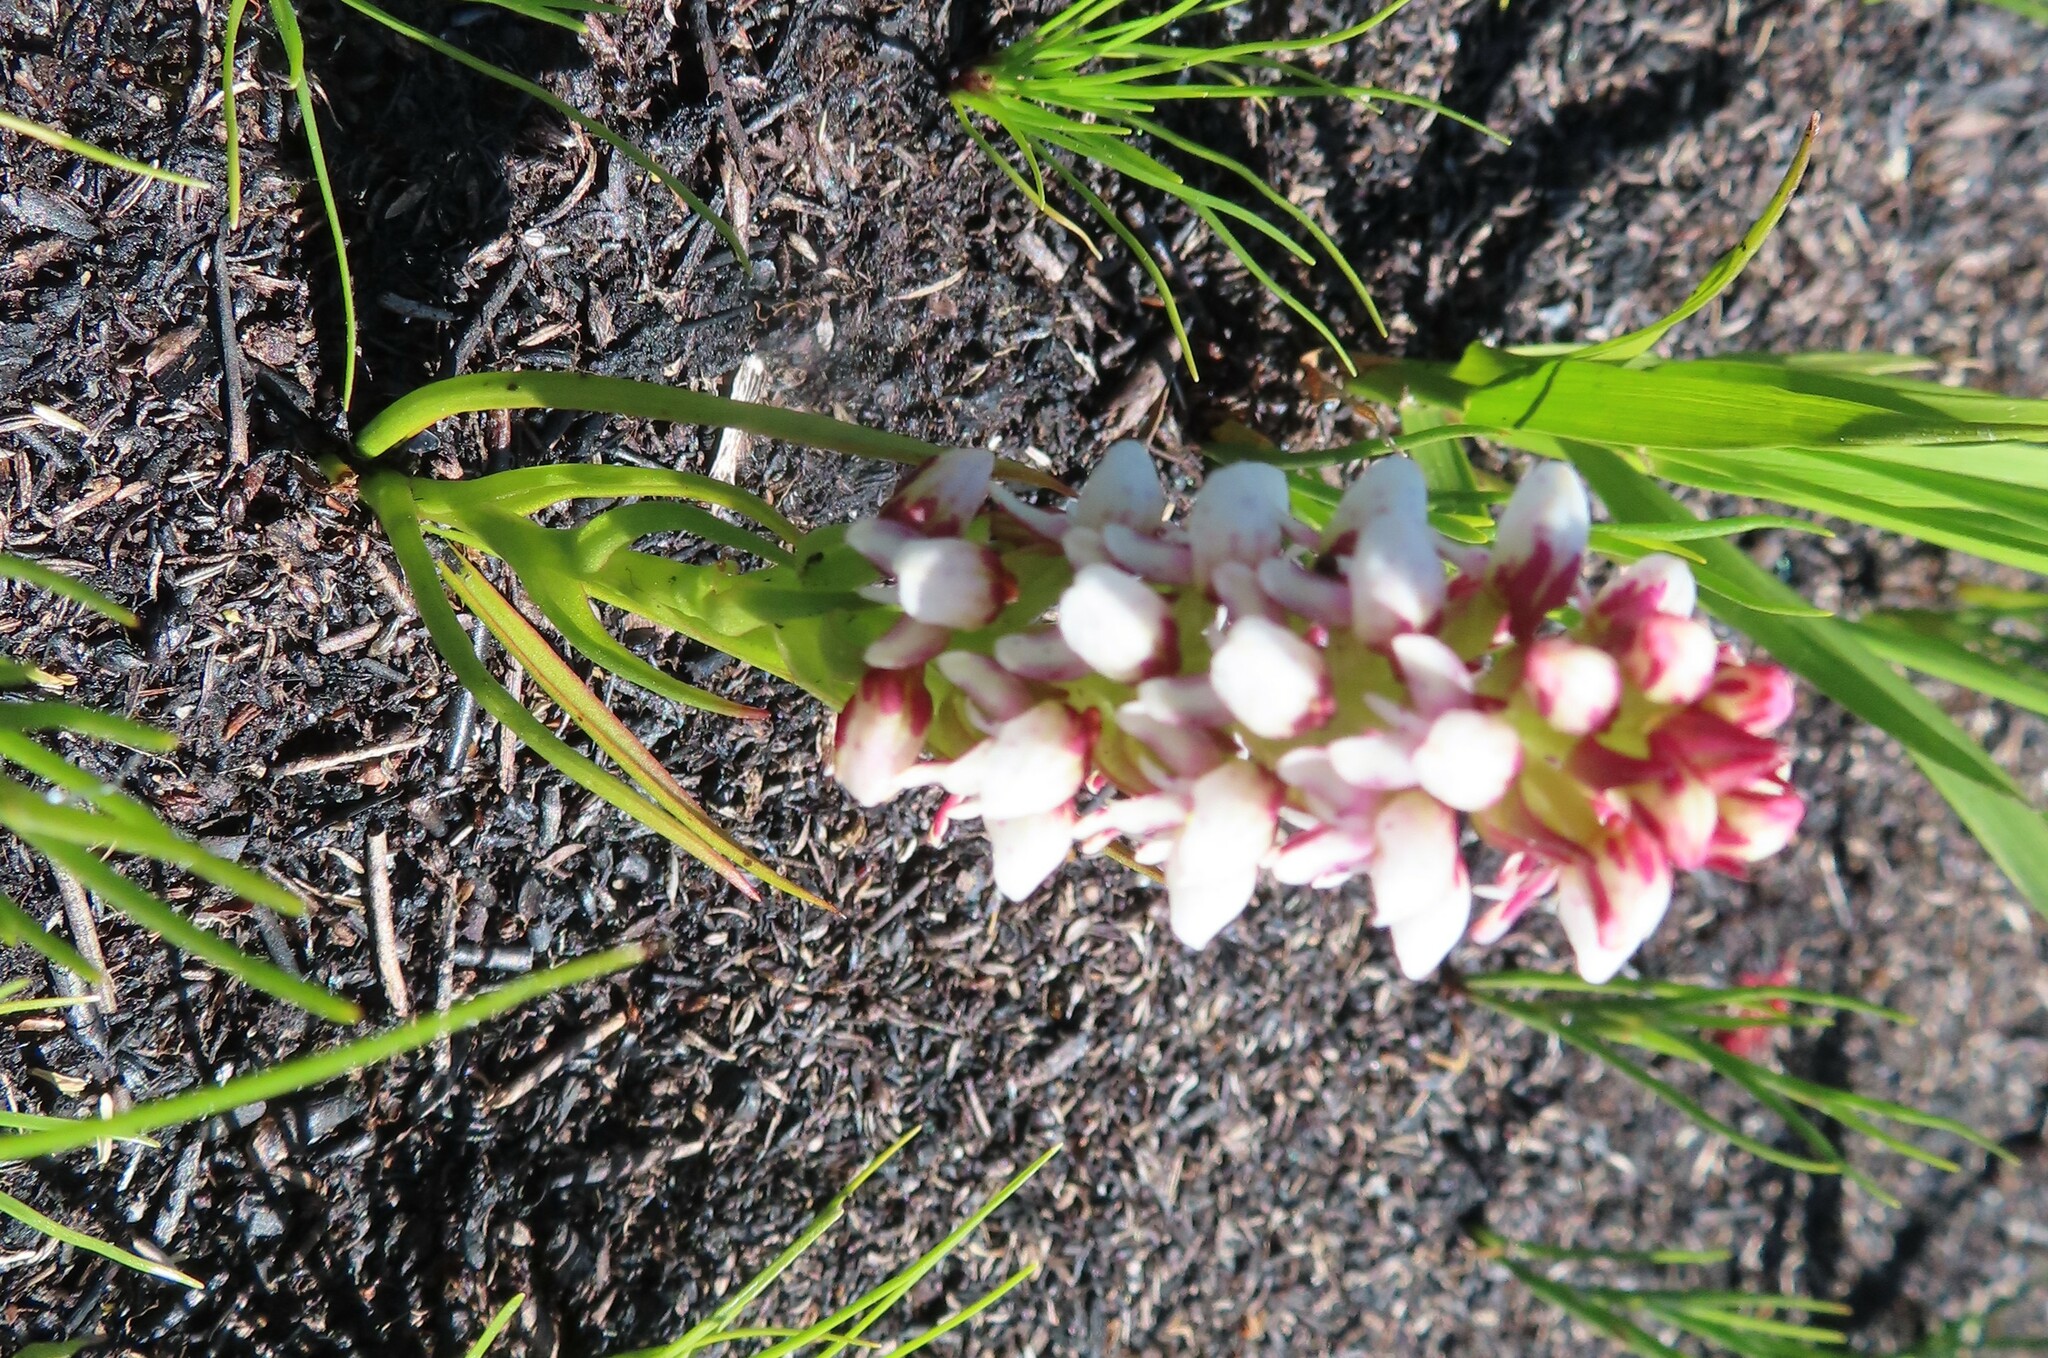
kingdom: Plantae
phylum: Tracheophyta
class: Liliopsida
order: Asparagales
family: Orchidaceae
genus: Disa
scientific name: Disa obtusa
